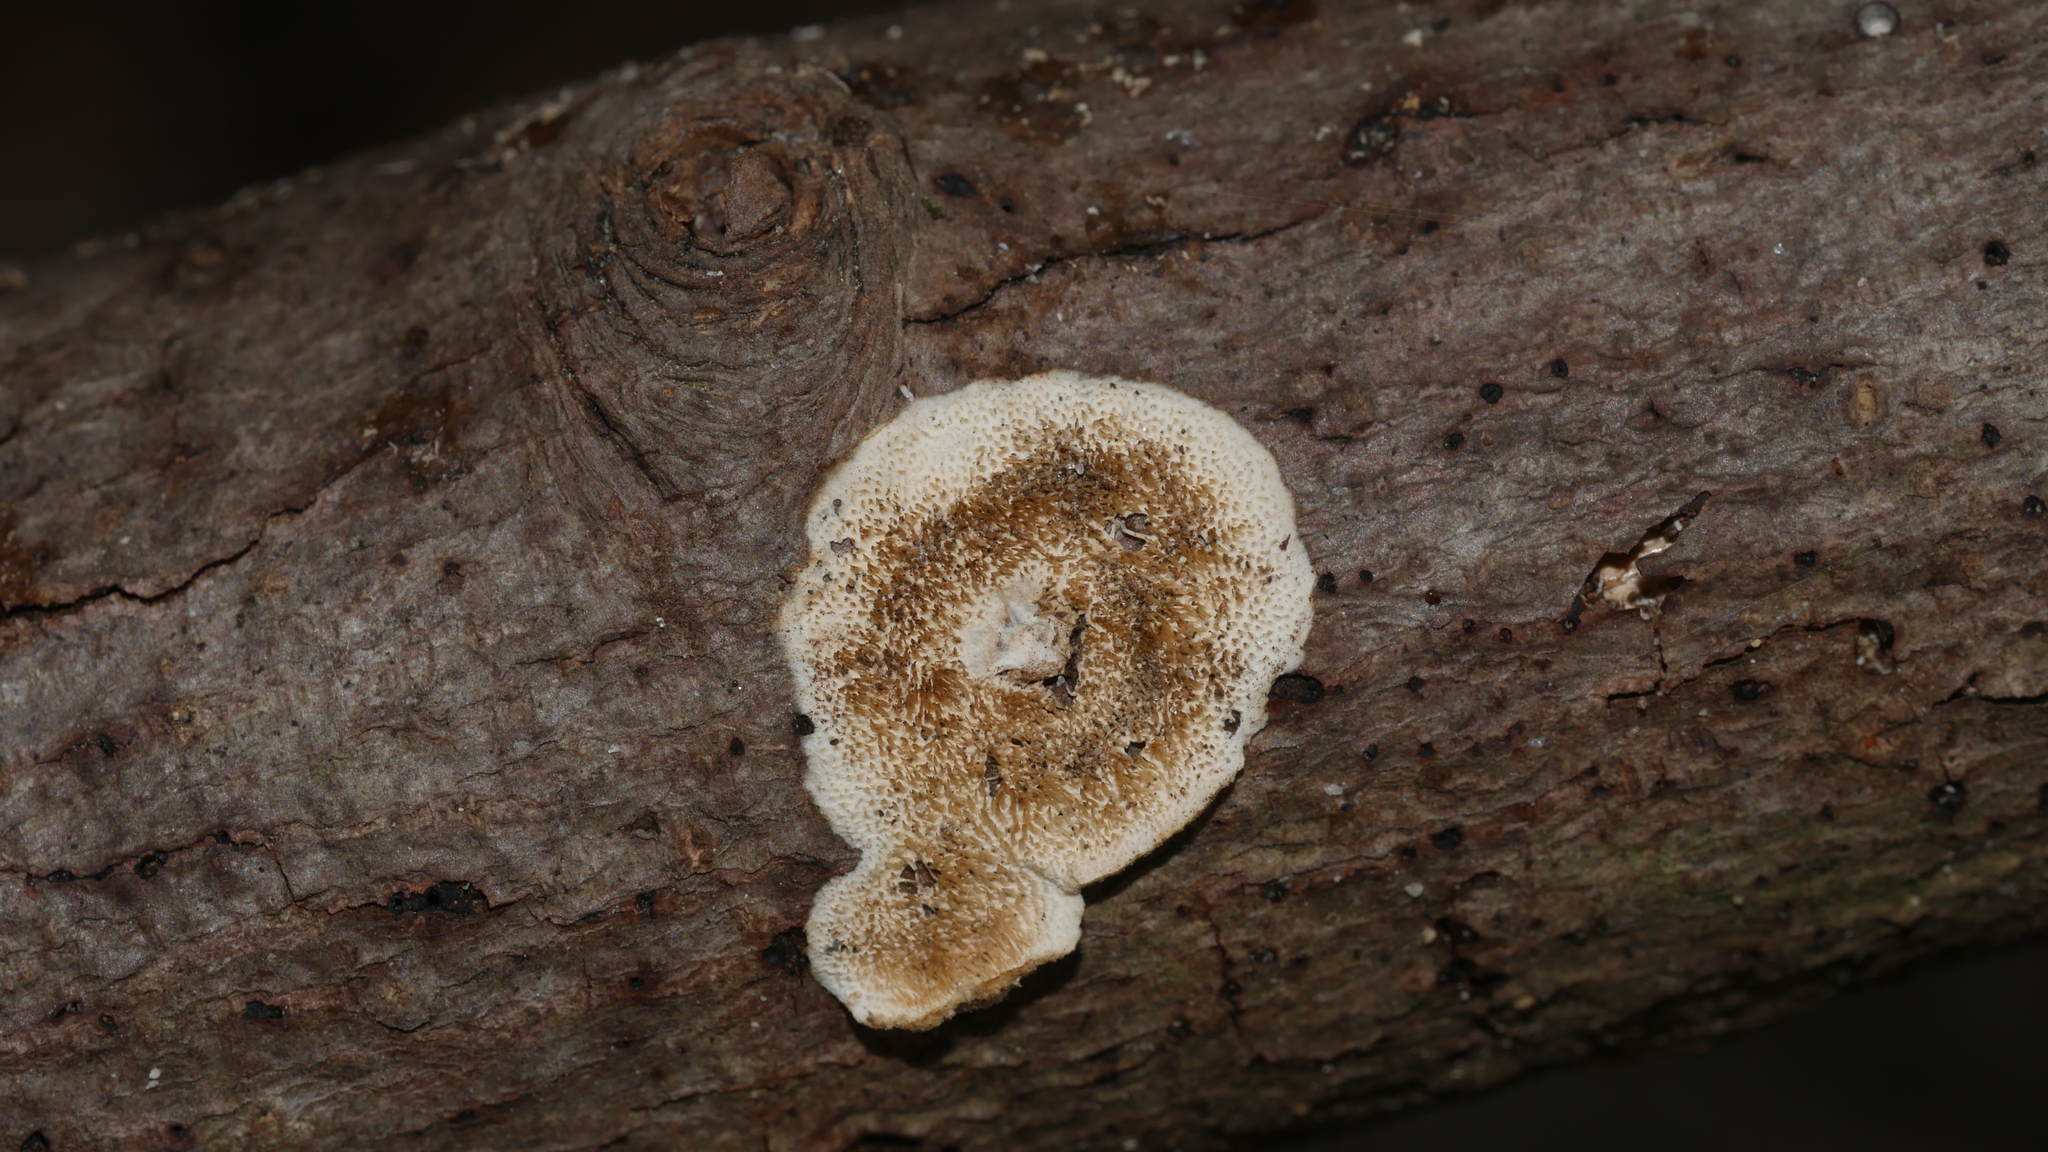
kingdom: Fungi
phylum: Basidiomycota
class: Agaricomycetes
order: Russulales
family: Peniophoraceae
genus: Peniophora
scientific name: Peniophora albobadia
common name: Giraffe spots
